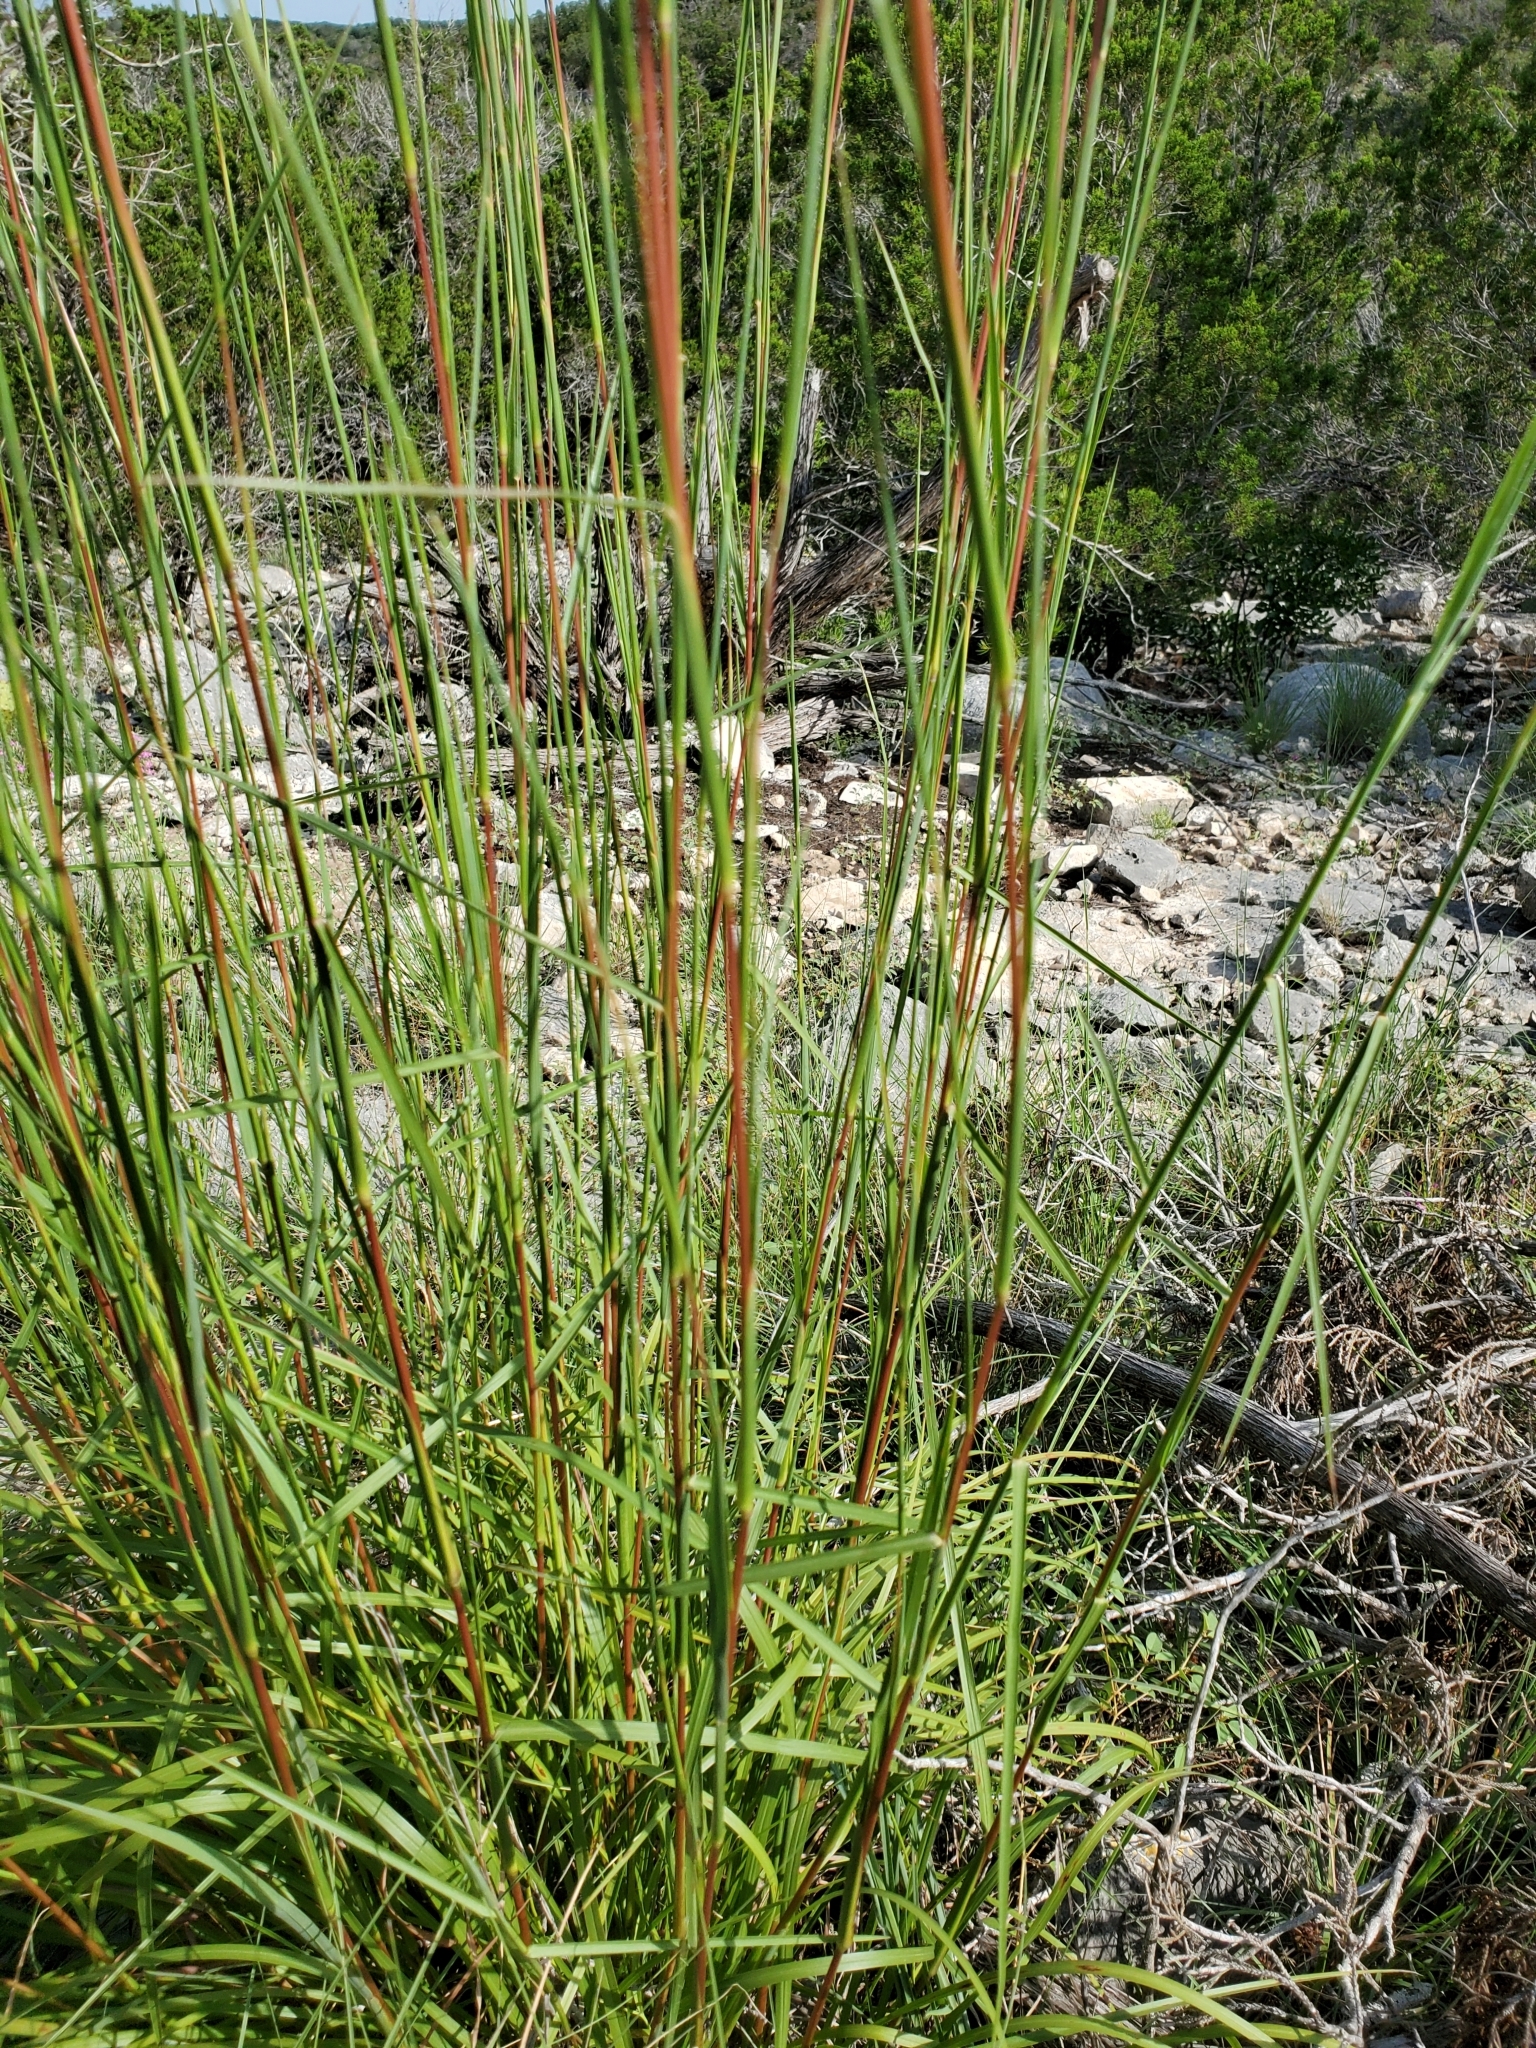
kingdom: Plantae
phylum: Tracheophyta
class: Liliopsida
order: Poales
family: Poaceae
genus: Schizachyrium
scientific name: Schizachyrium scoparium
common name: Little bluestem
